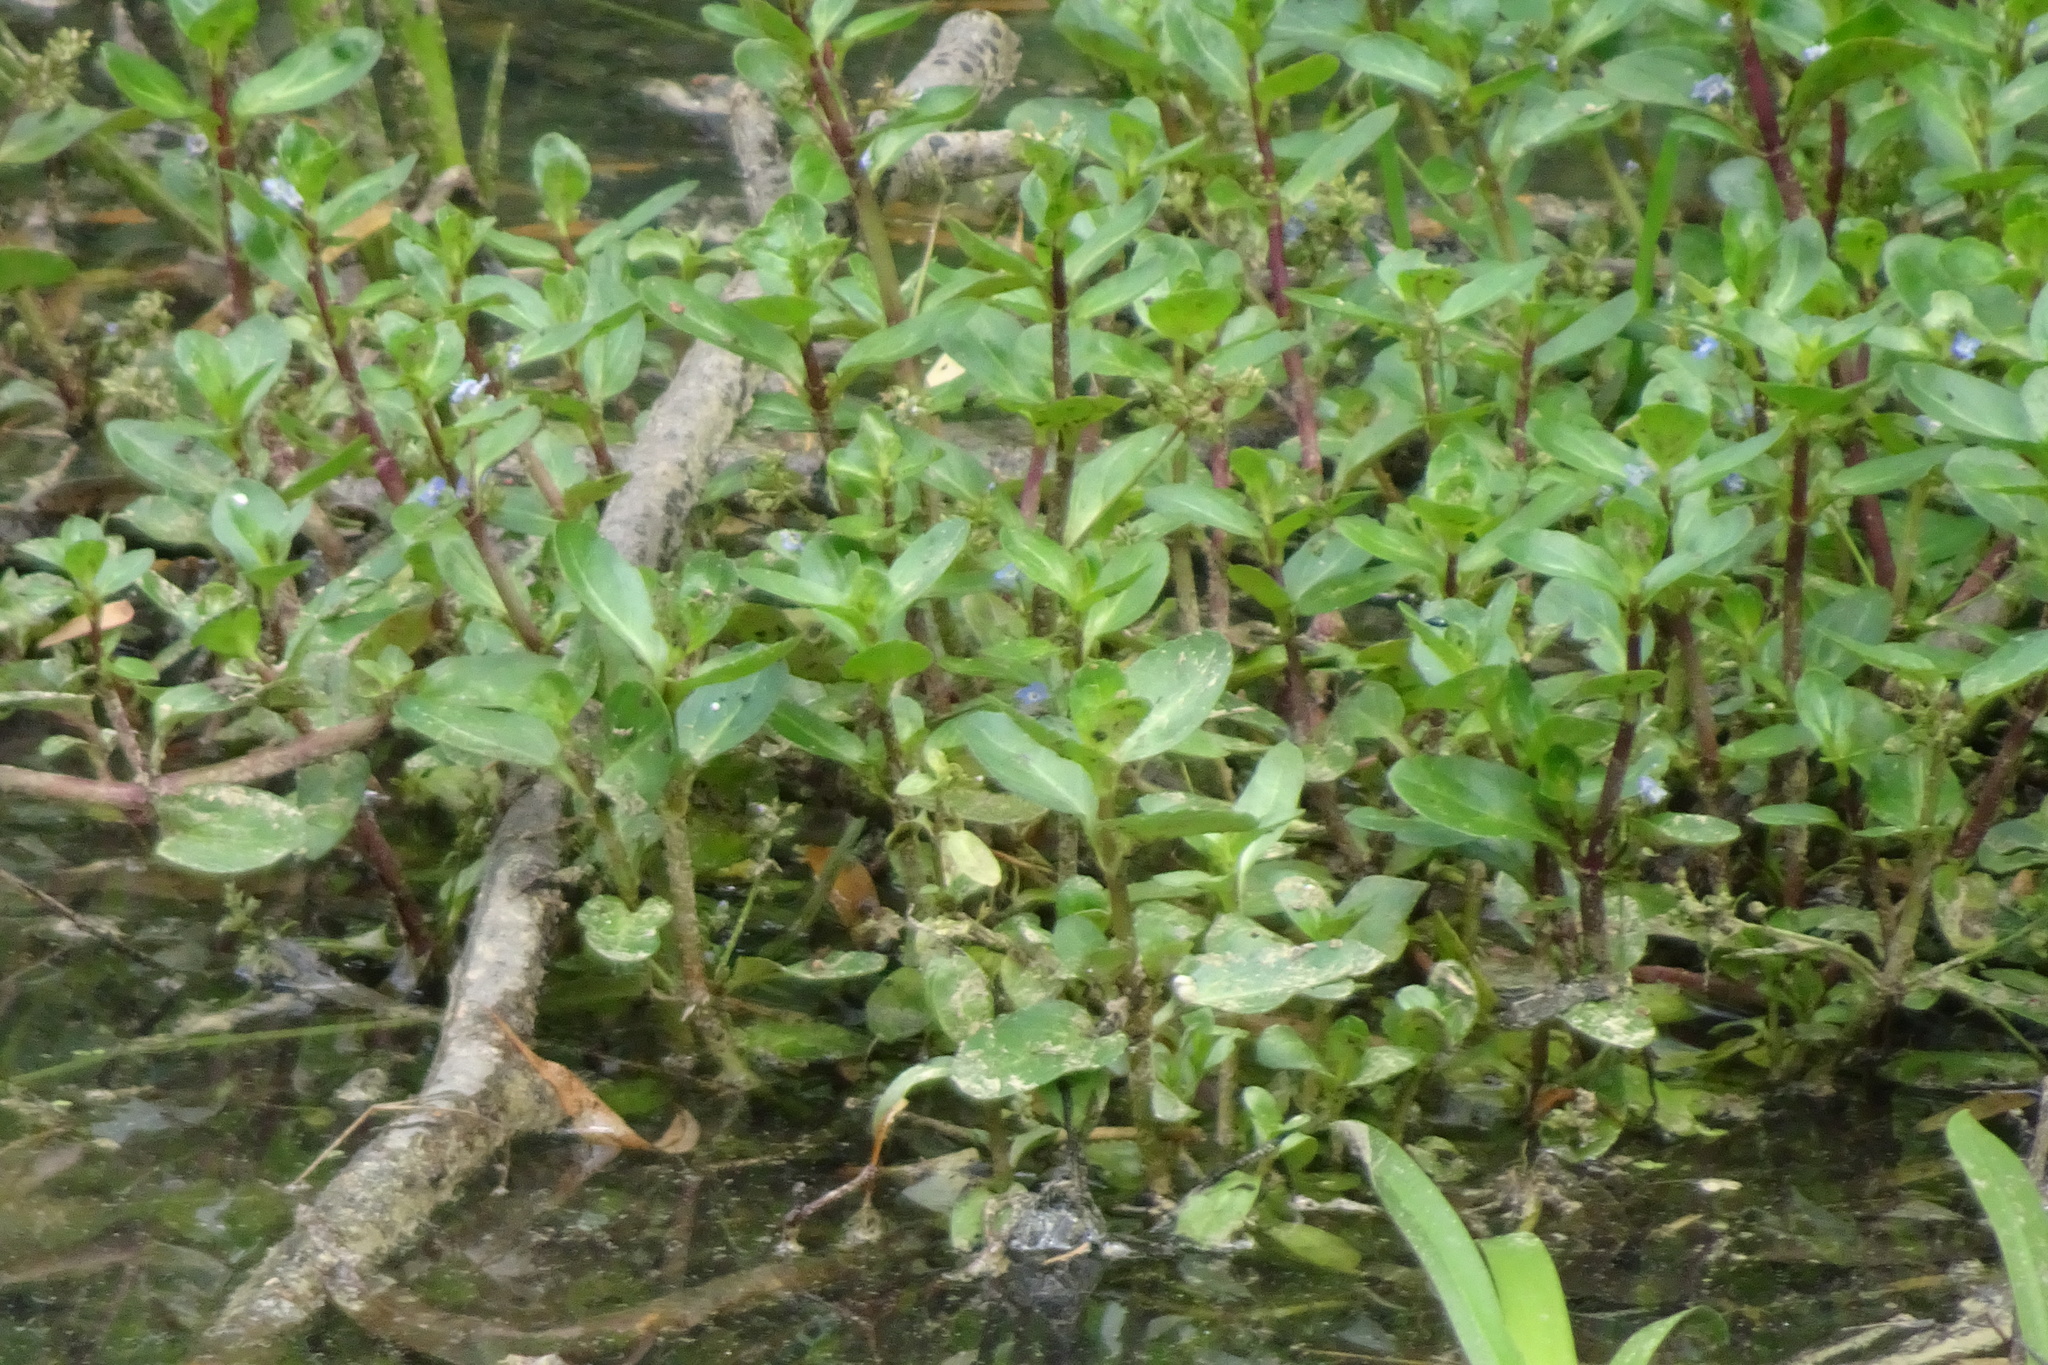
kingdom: Plantae
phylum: Tracheophyta
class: Magnoliopsida
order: Lamiales
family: Plantaginaceae
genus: Veronica
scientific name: Veronica beccabunga
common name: Brooklime
